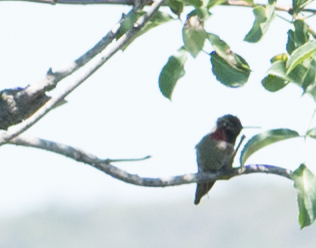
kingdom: Animalia
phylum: Chordata
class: Aves
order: Apodiformes
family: Trochilidae
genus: Calypte
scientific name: Calypte anna
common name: Anna's hummingbird
